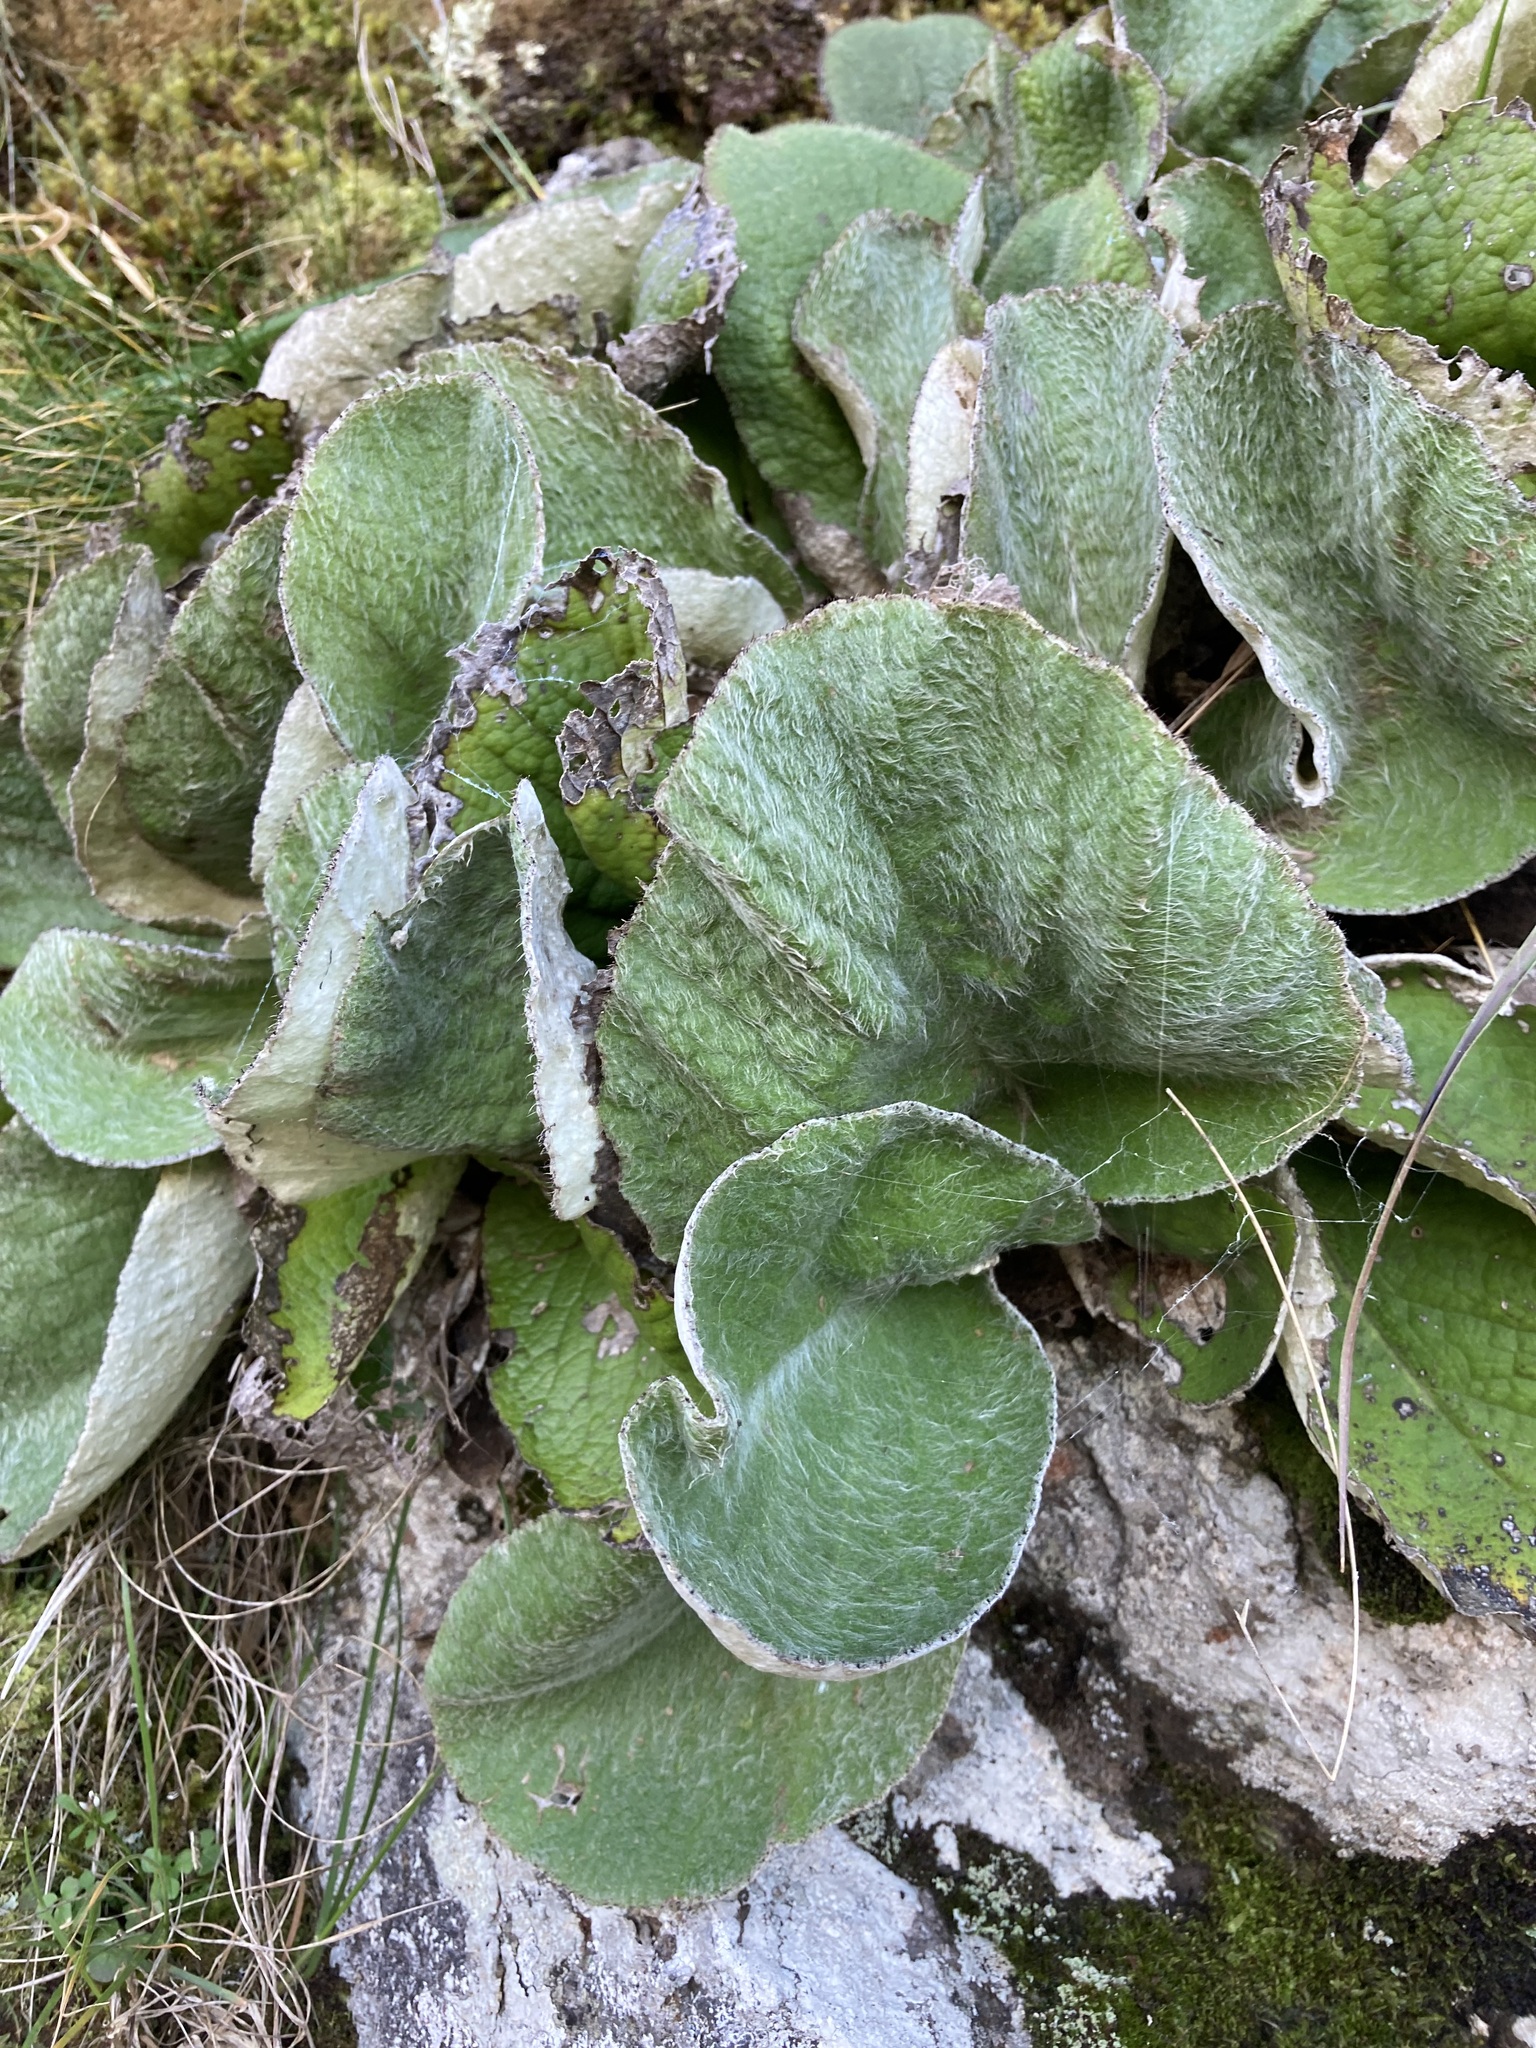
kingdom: Plantae
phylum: Tracheophyta
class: Magnoliopsida
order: Asterales
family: Asteraceae
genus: Brachyglottis
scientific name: Brachyglottis lagopus
